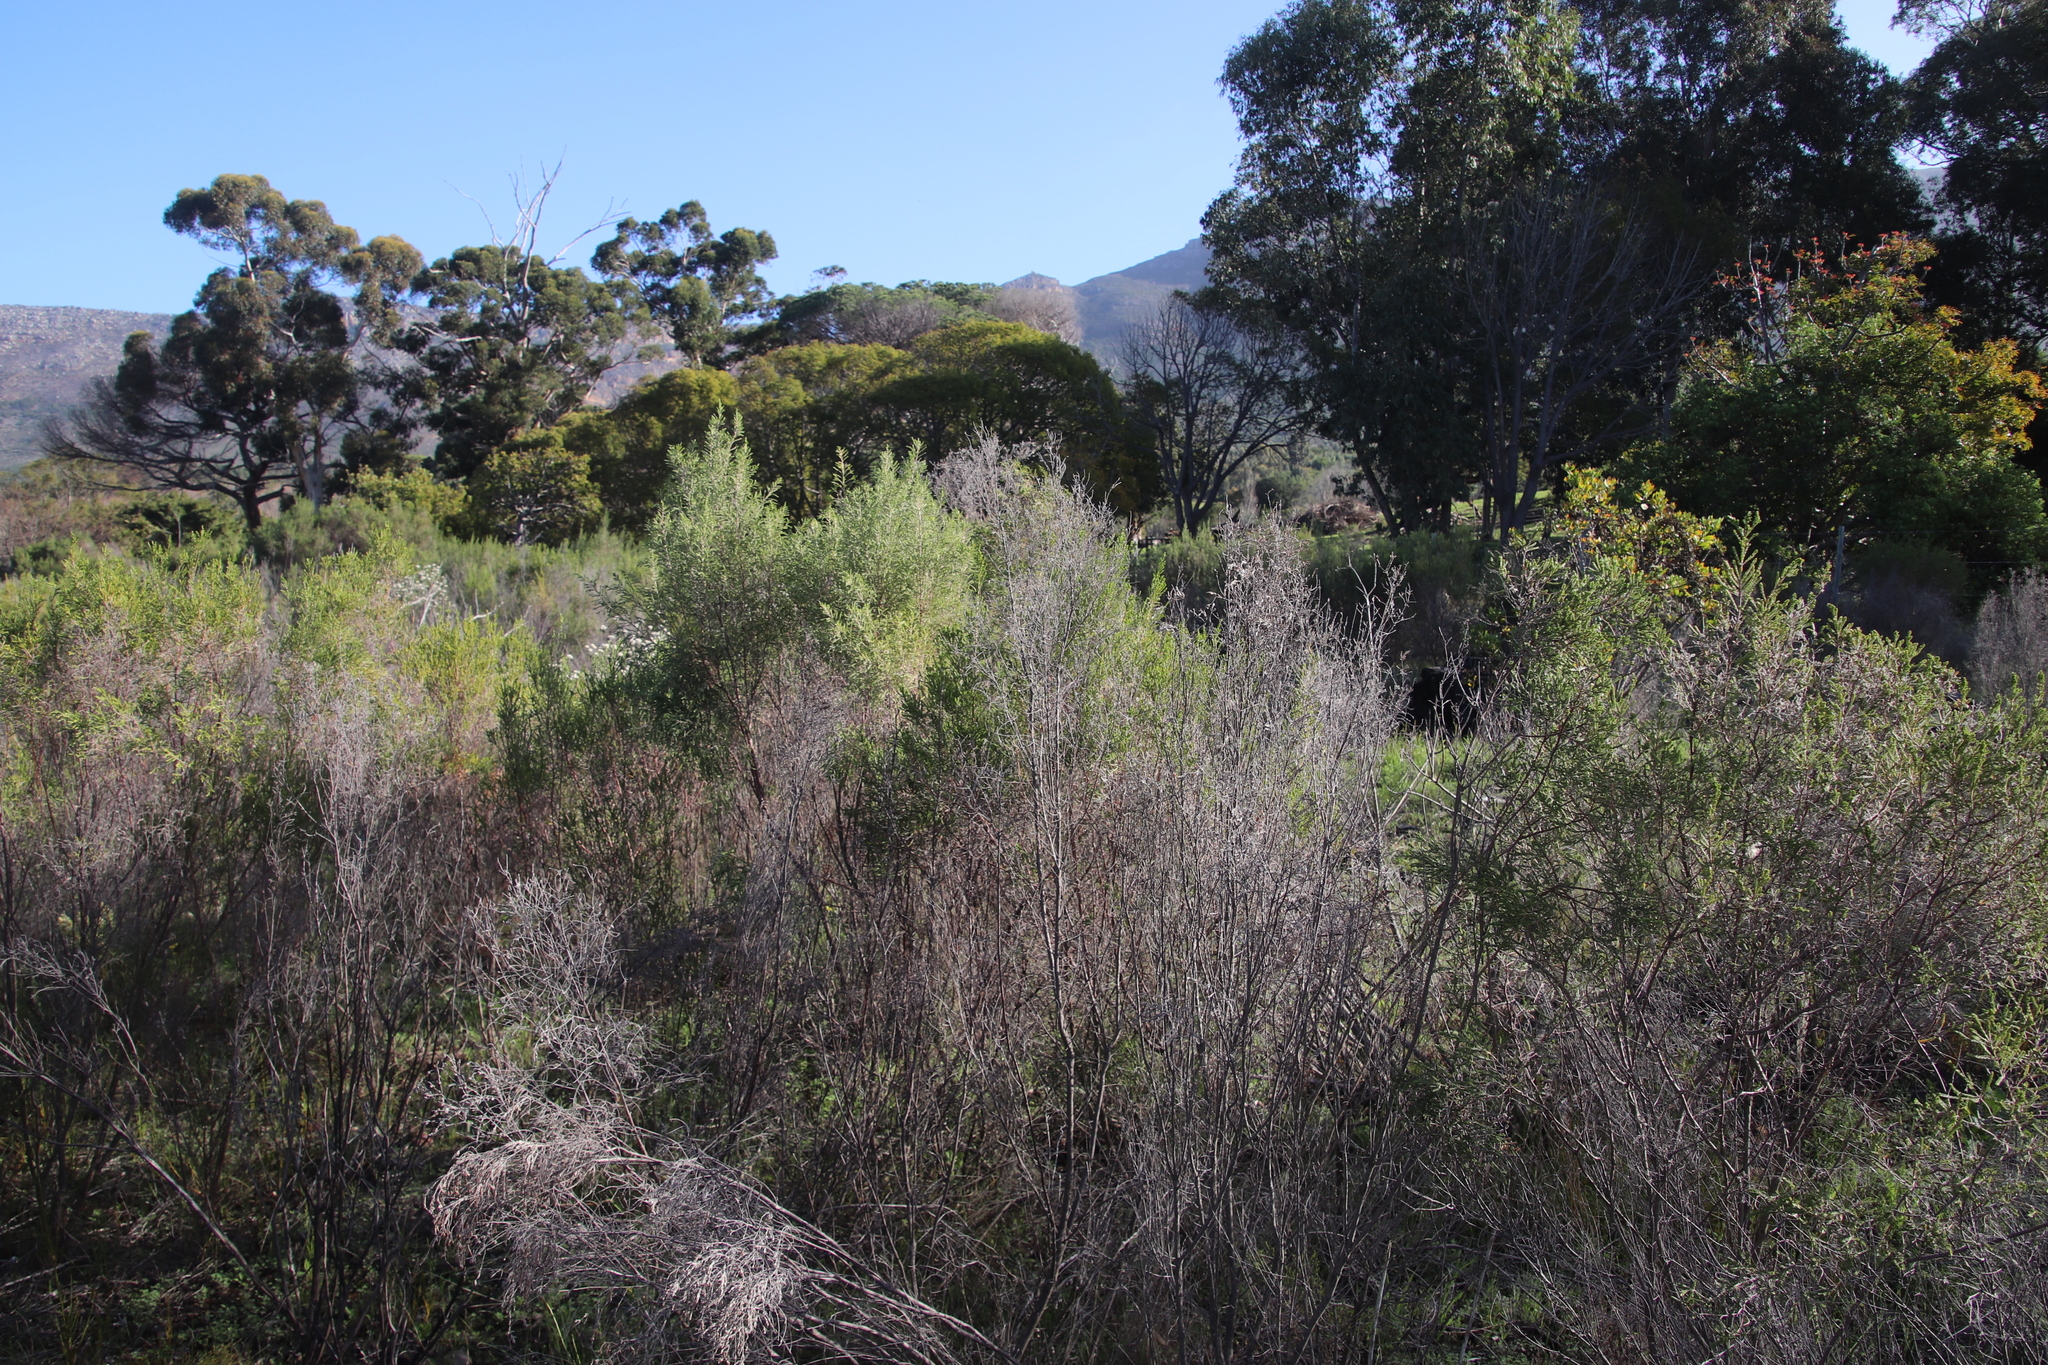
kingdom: Plantae
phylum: Tracheophyta
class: Magnoliopsida
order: Malvales
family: Thymelaeaceae
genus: Passerina
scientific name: Passerina corymbosa
